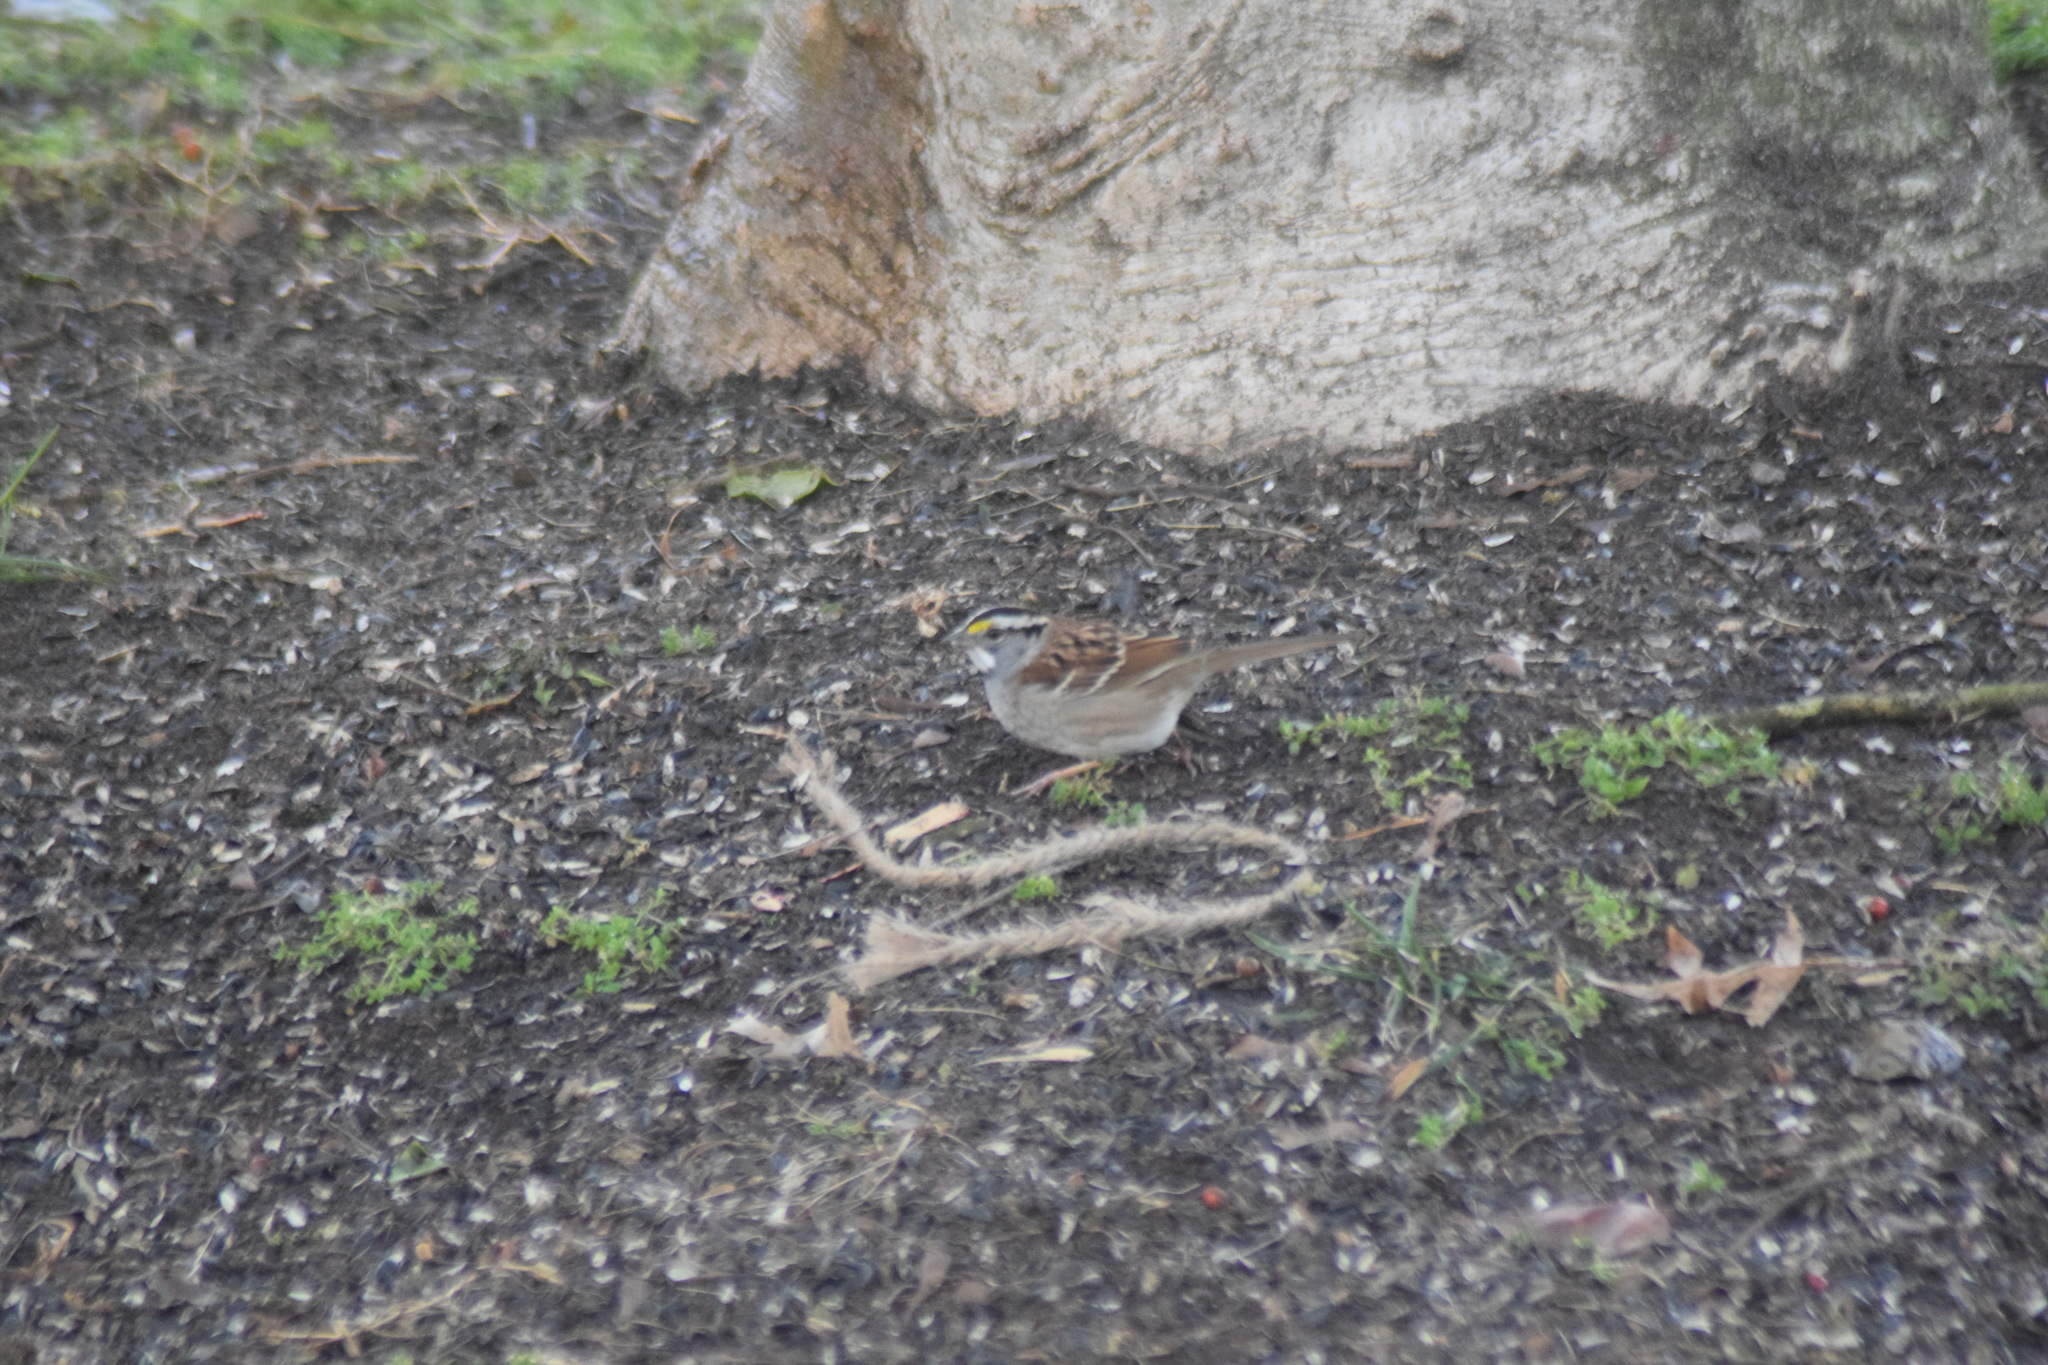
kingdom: Animalia
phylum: Chordata
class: Aves
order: Passeriformes
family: Passerellidae
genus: Zonotrichia
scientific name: Zonotrichia albicollis
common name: White-throated sparrow
